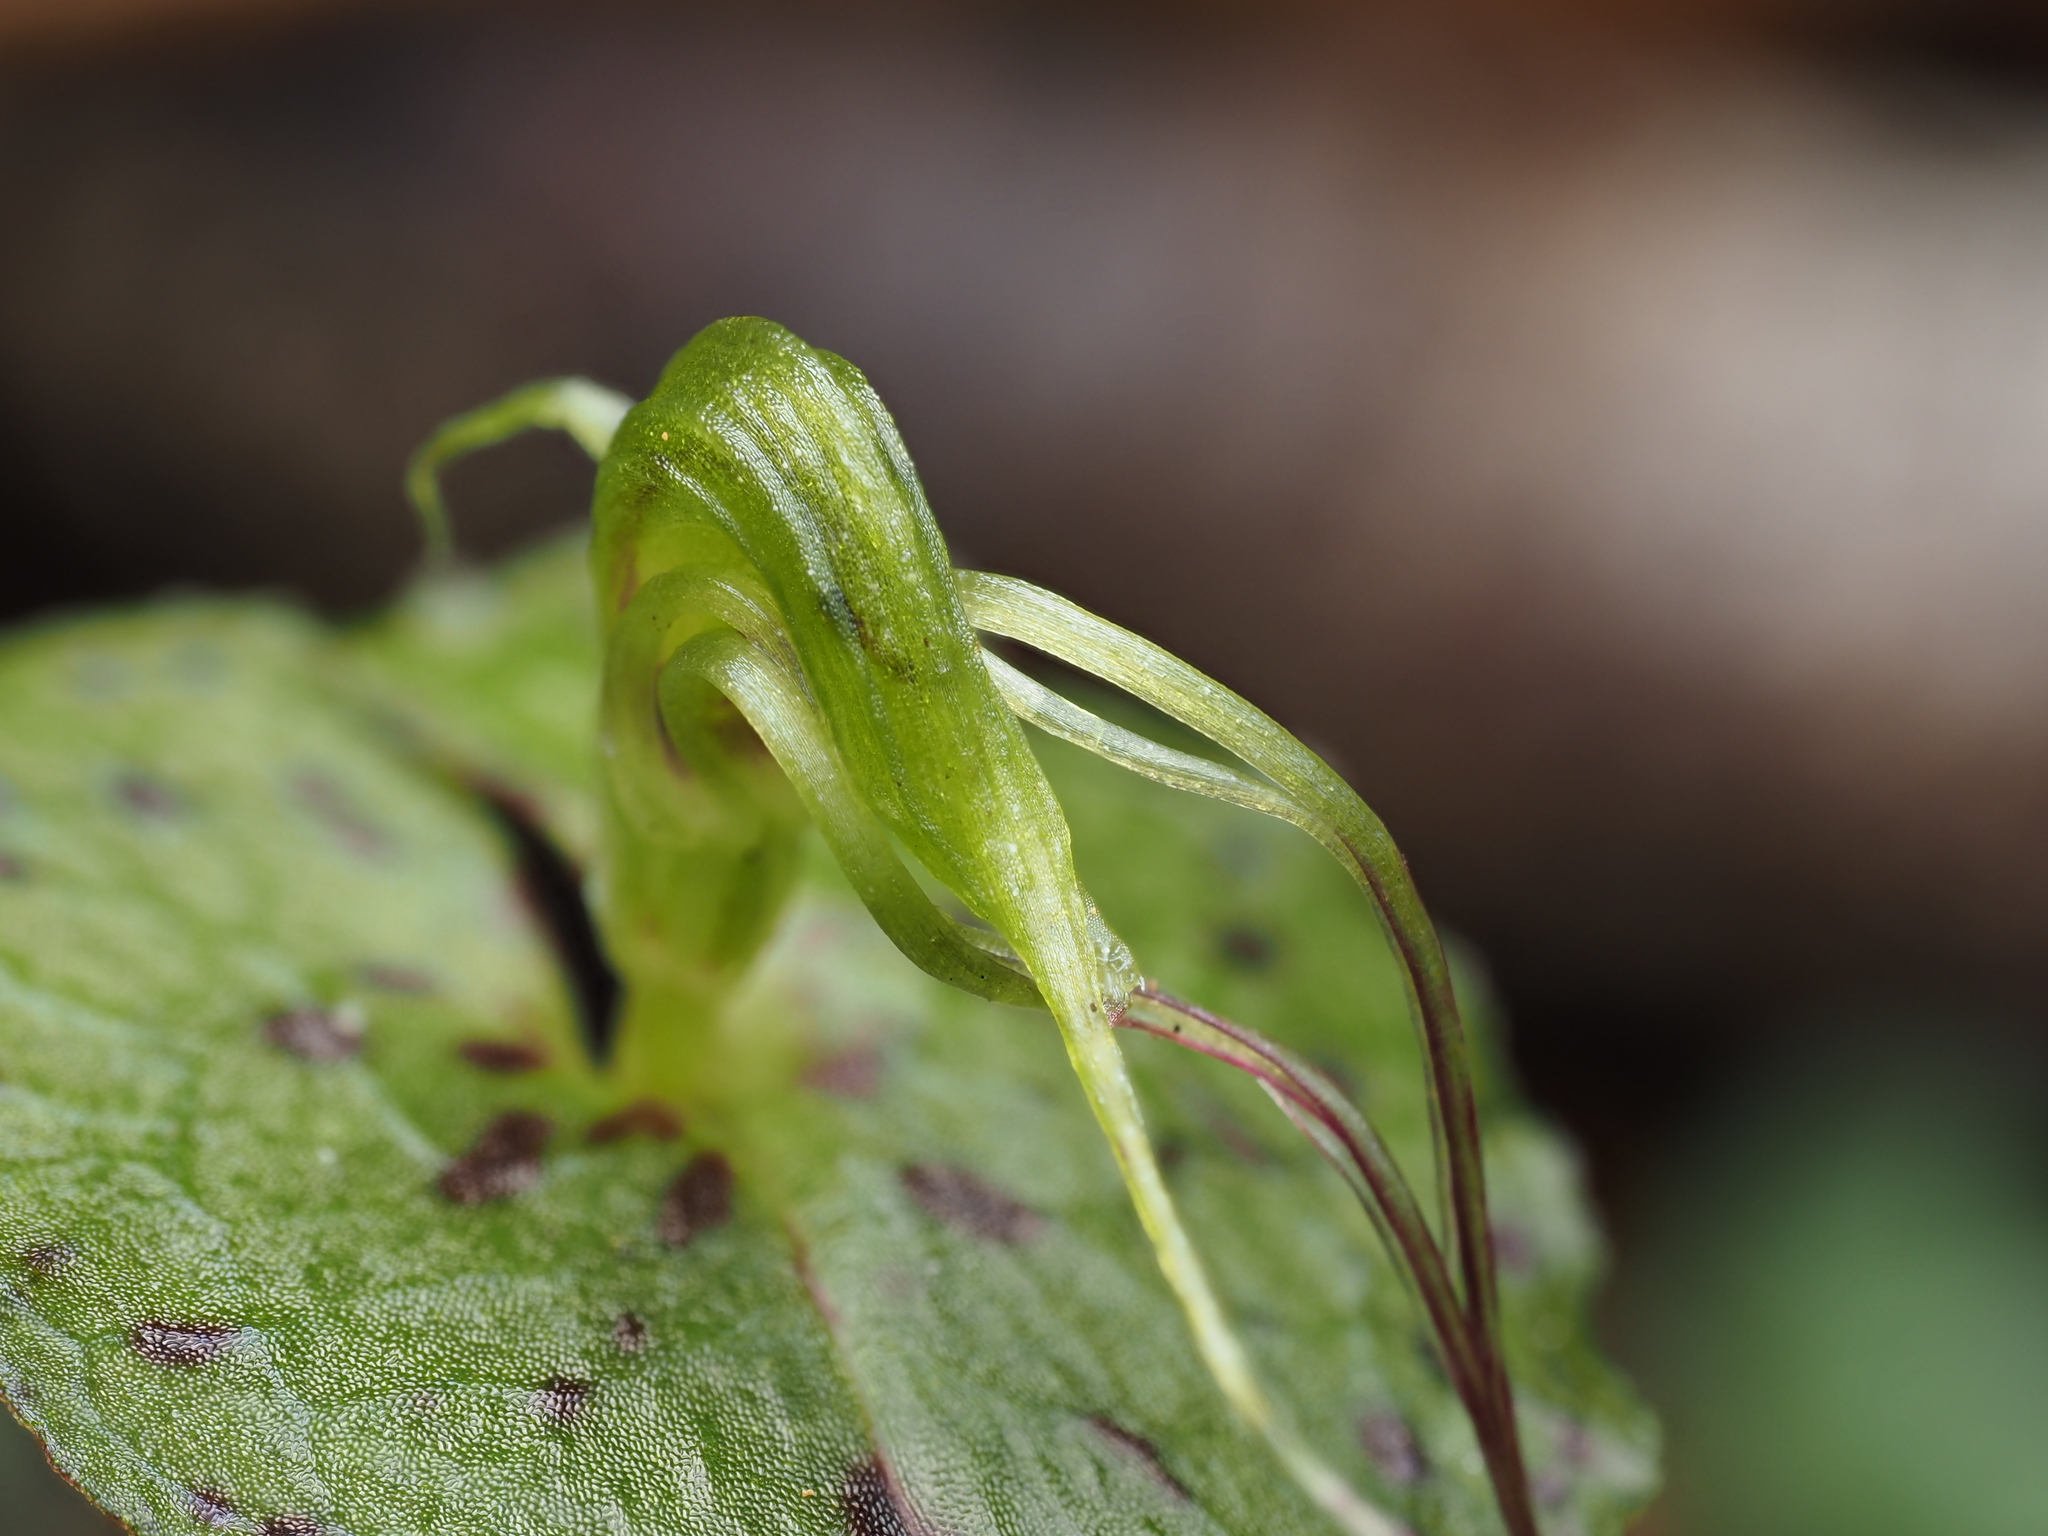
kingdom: Plantae
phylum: Tracheophyta
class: Liliopsida
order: Asparagales
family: Orchidaceae
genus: Corybas
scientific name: Corybas acuminatus
